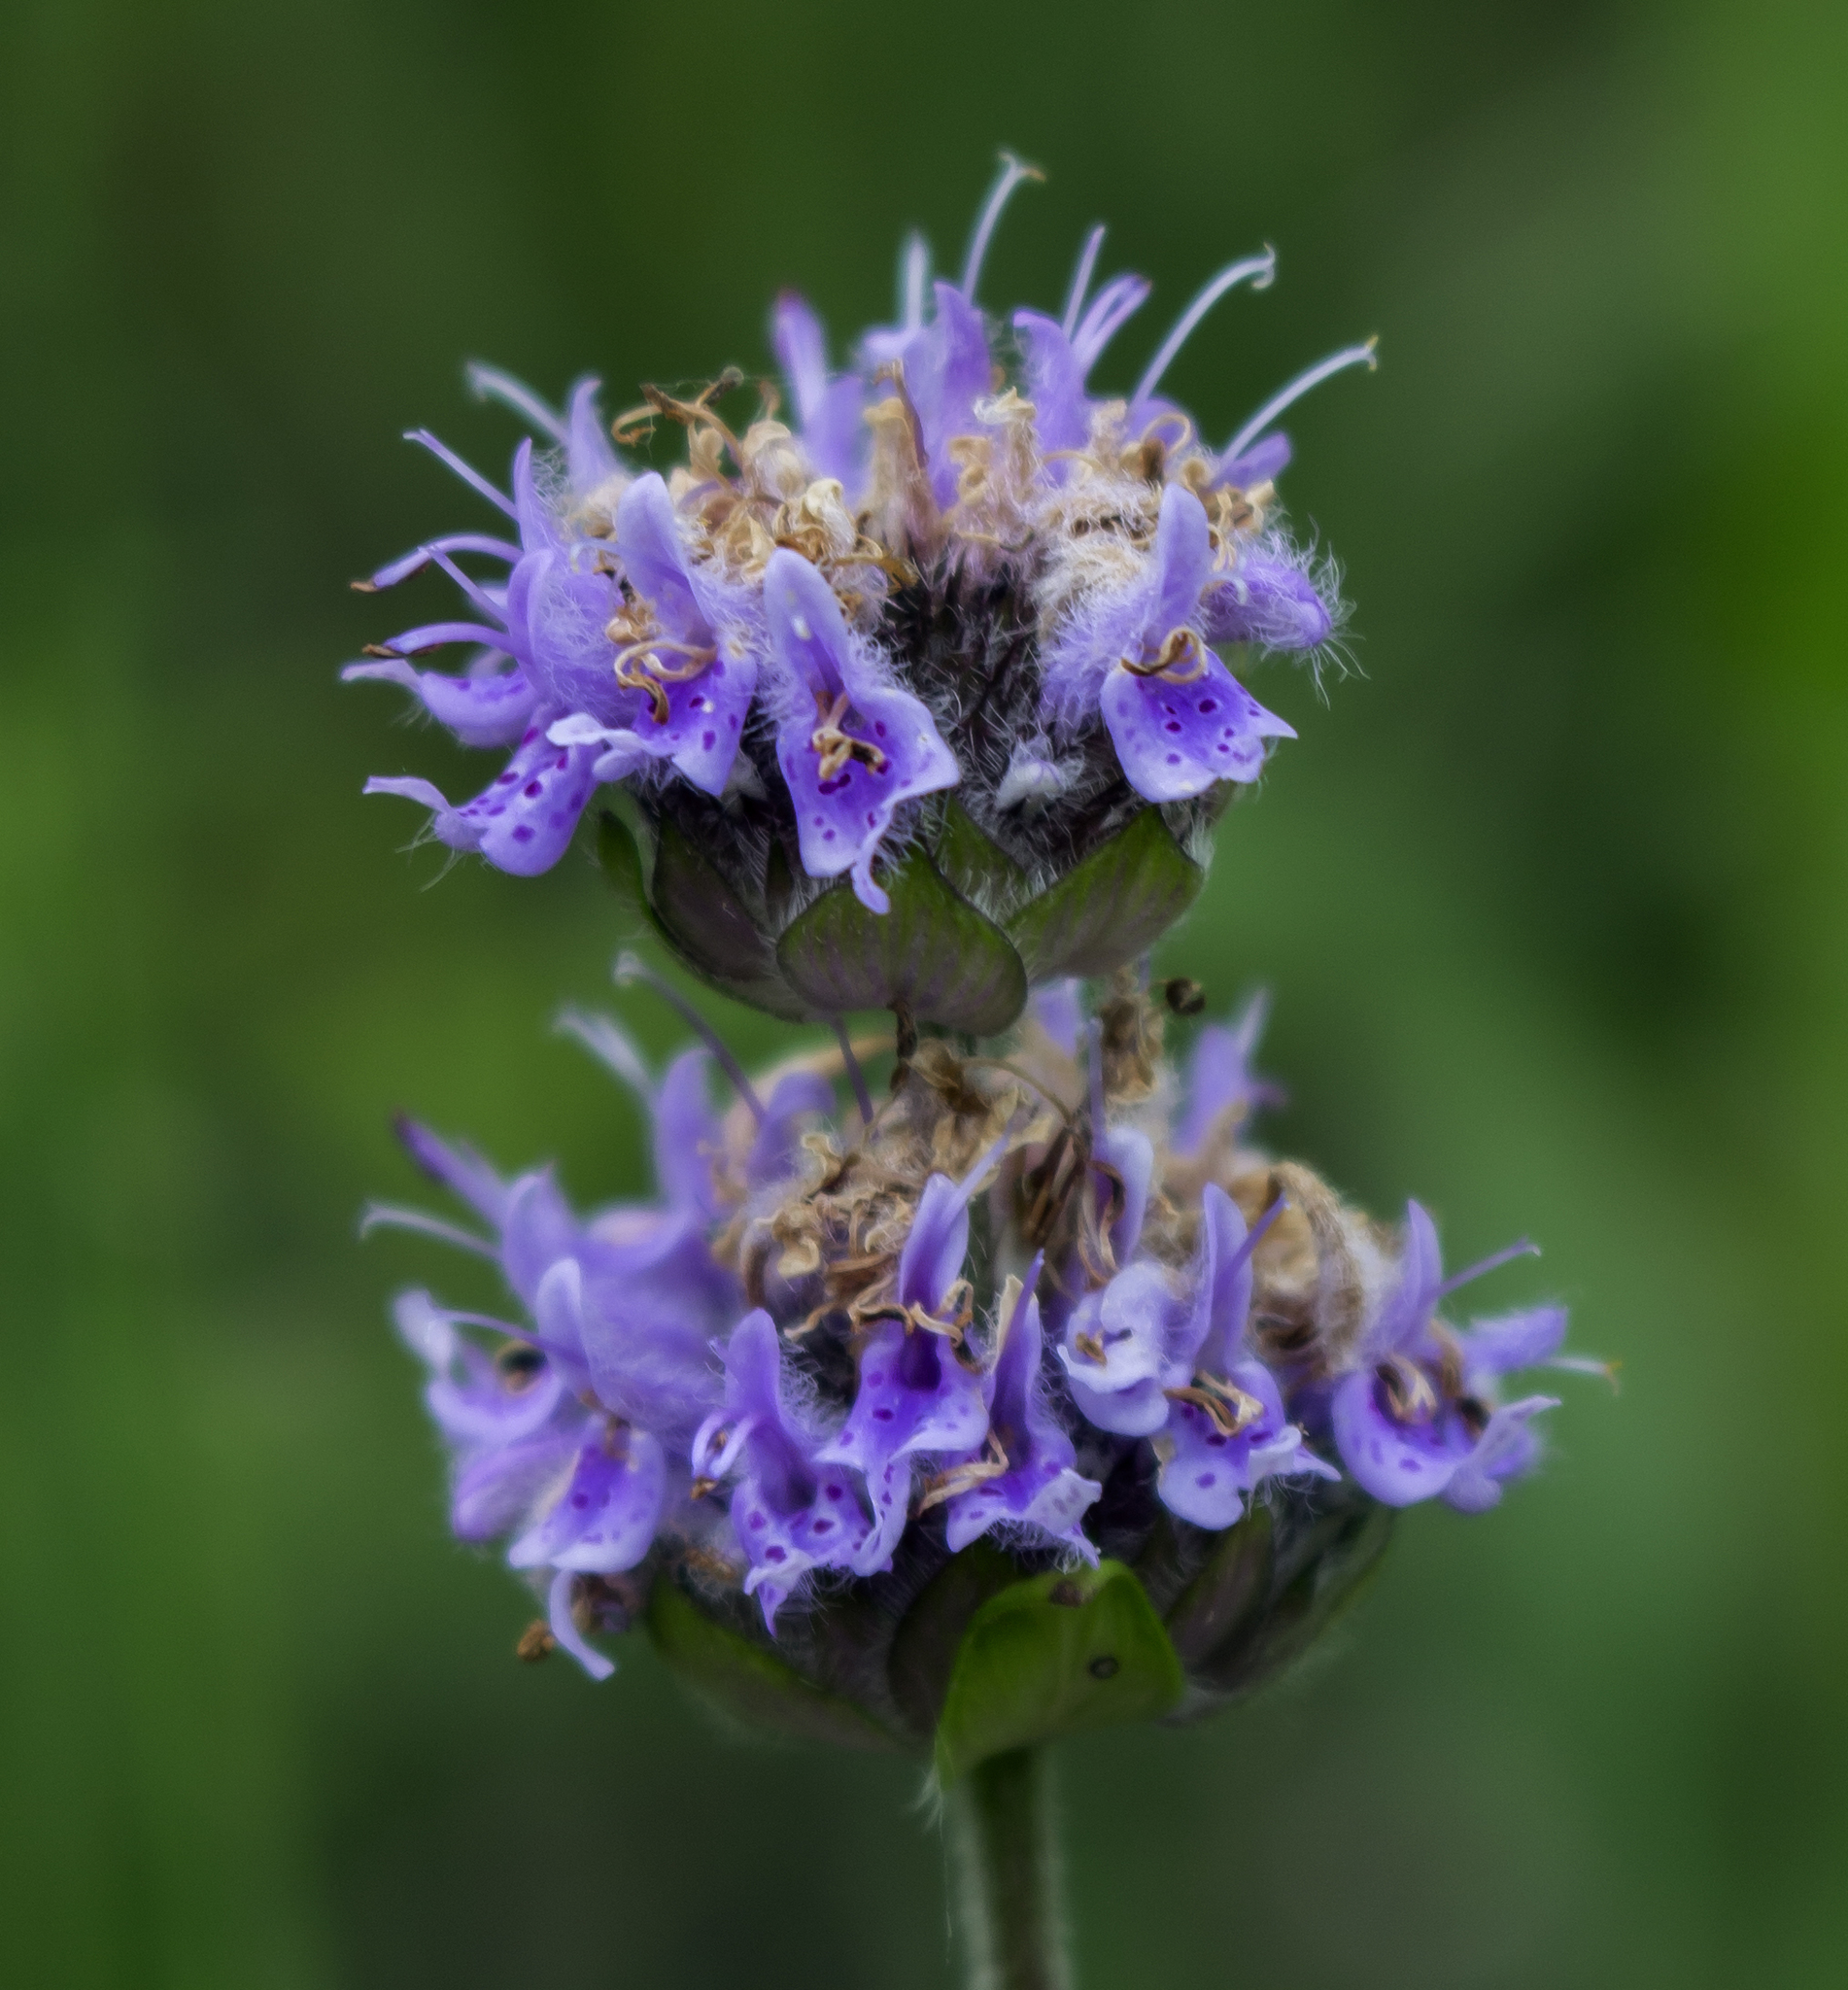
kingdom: Plantae
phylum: Tracheophyta
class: Magnoliopsida
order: Lamiales
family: Lamiaceae
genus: Blephilia
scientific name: Blephilia ciliata
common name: Downy blephilia
